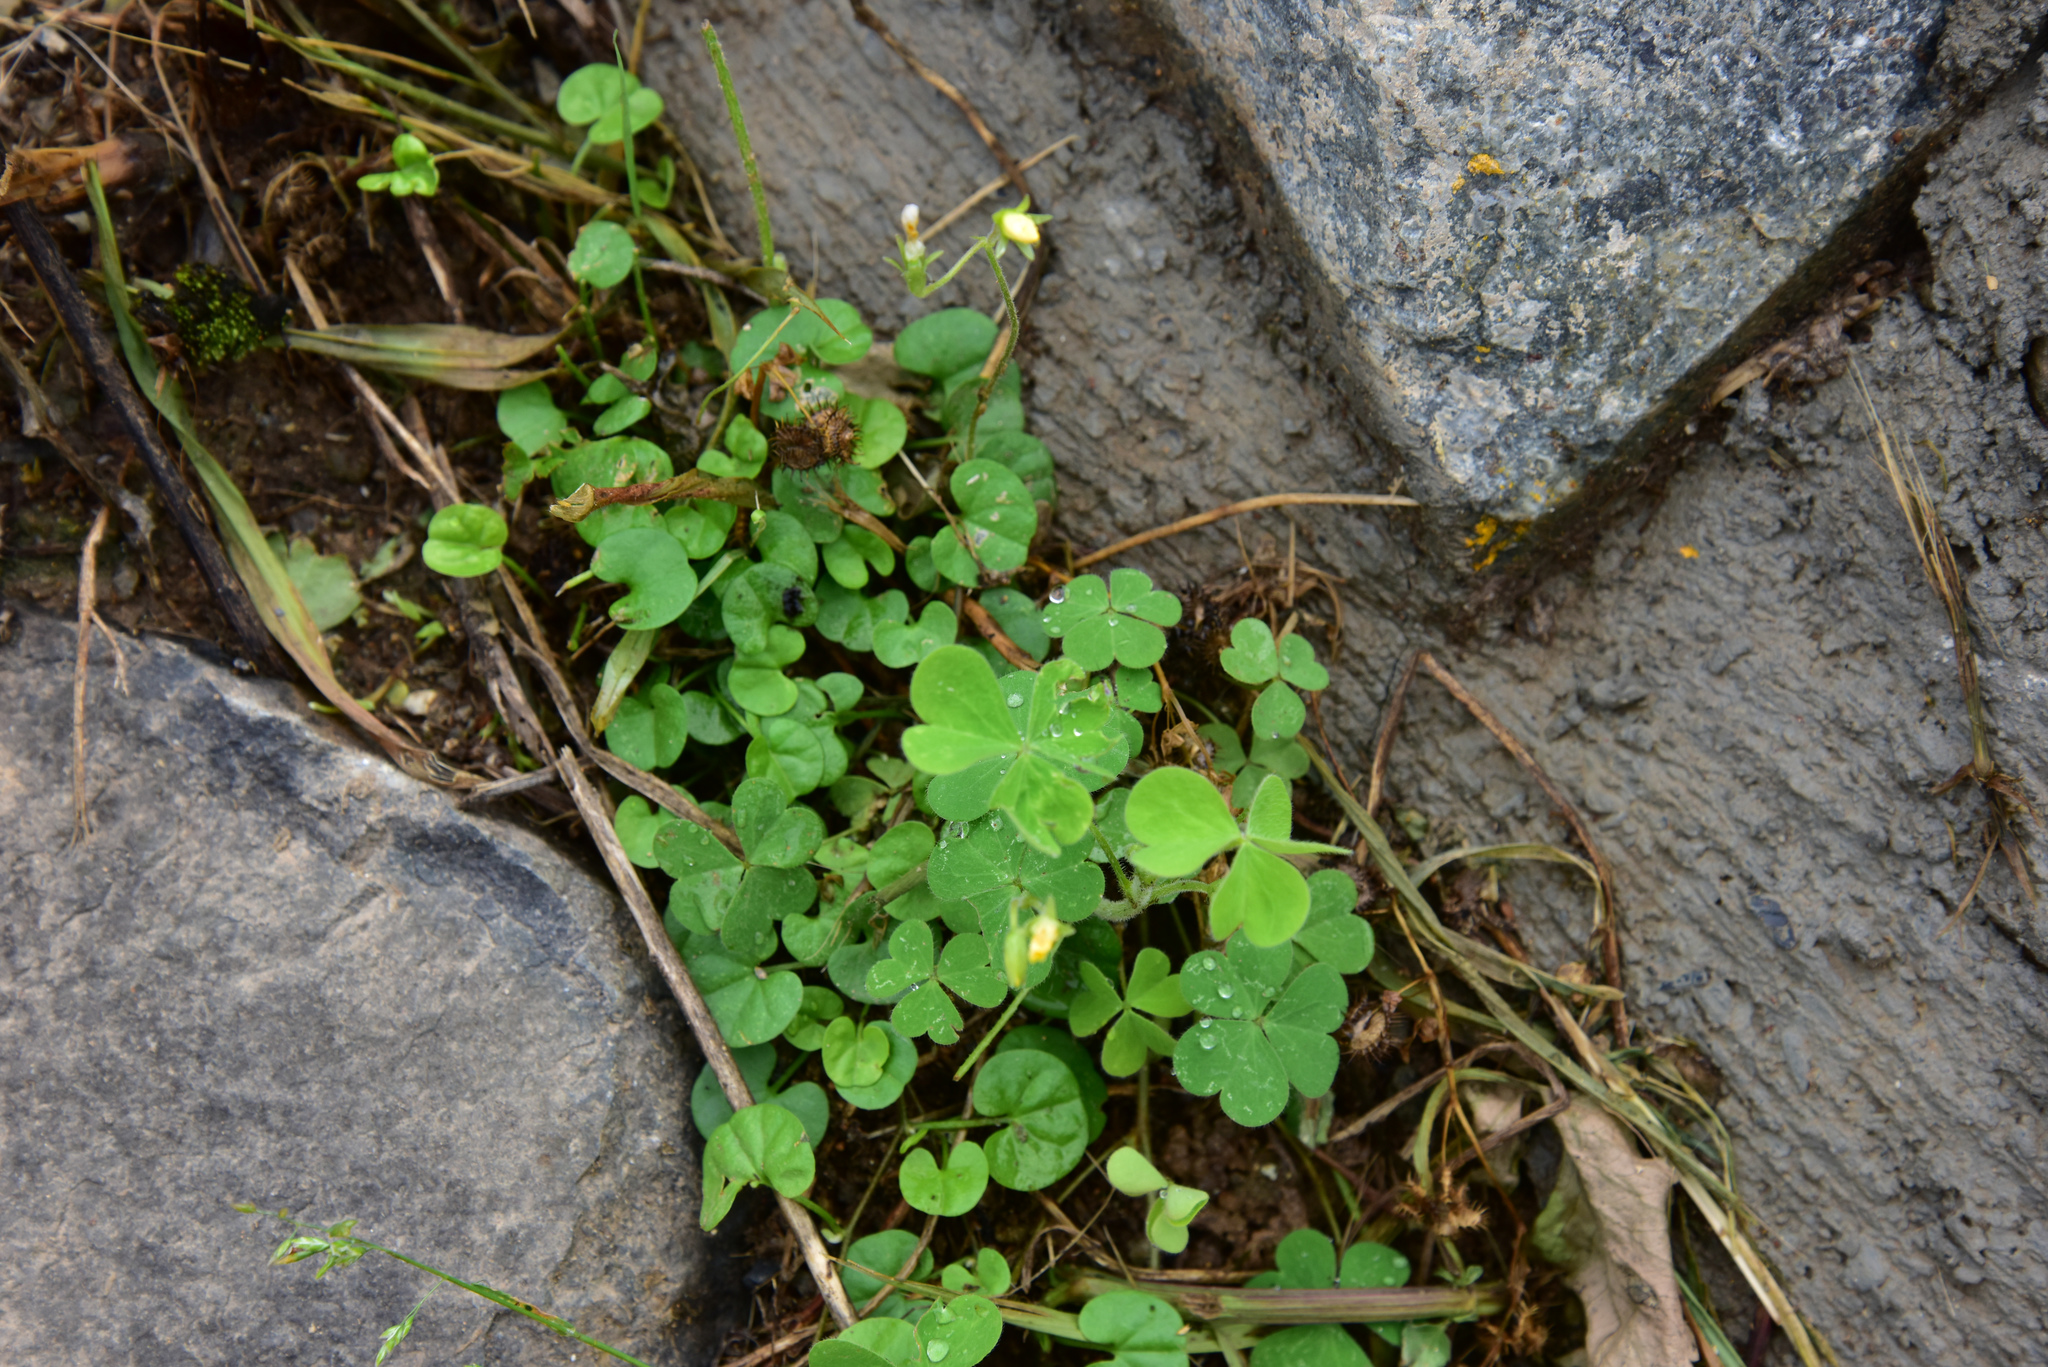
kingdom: Plantae
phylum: Tracheophyta
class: Magnoliopsida
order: Oxalidales
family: Oxalidaceae
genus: Oxalis
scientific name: Oxalis corniculata
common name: Procumbent yellow-sorrel
